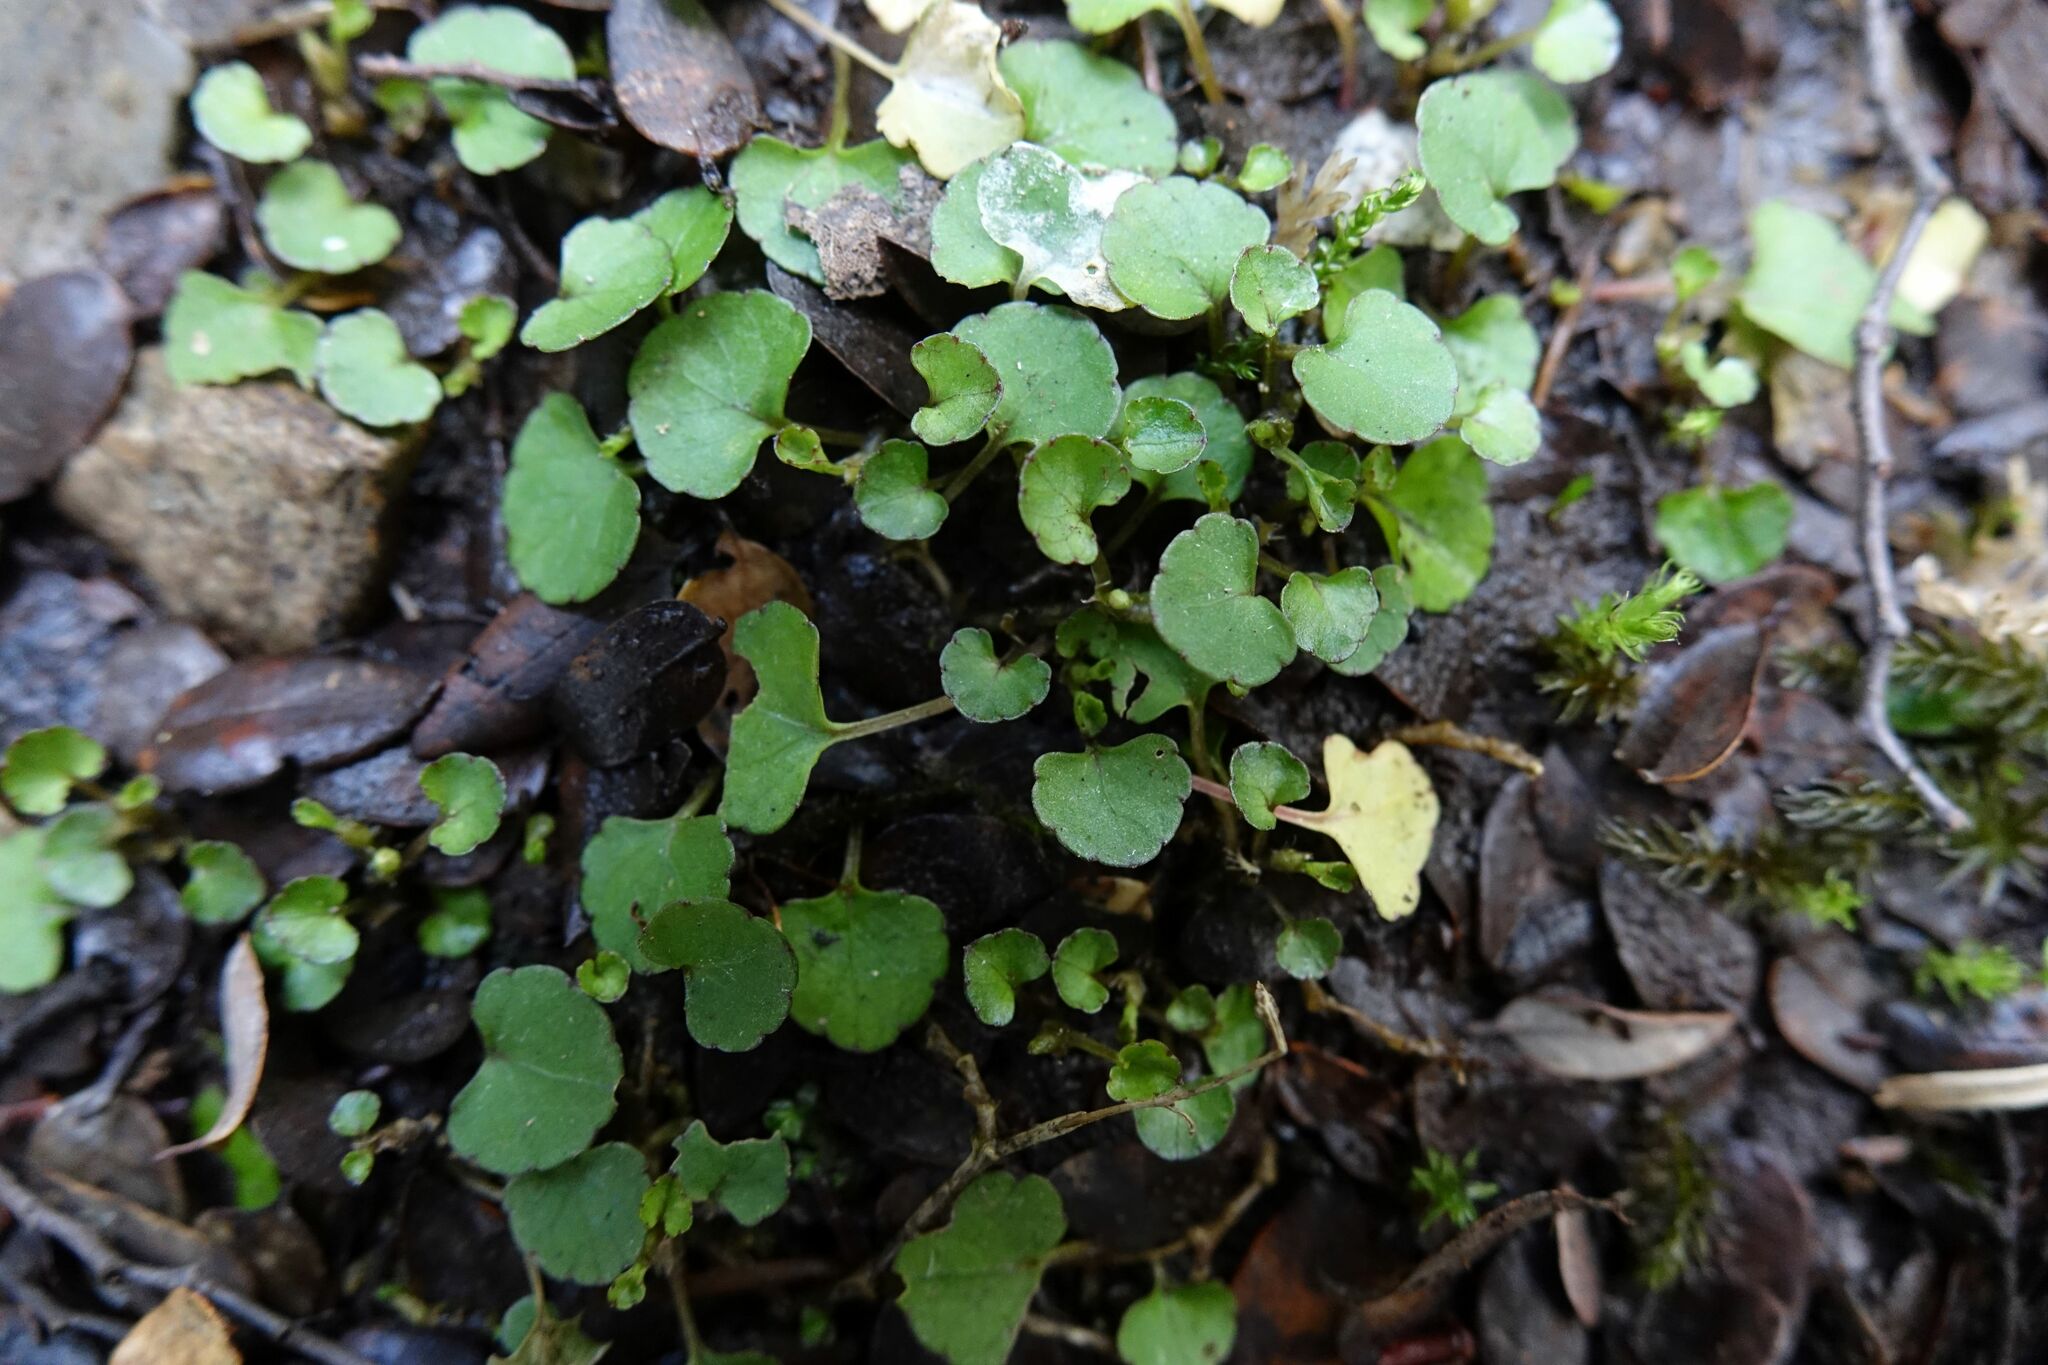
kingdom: Plantae
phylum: Tracheophyta
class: Magnoliopsida
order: Malpighiales
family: Violaceae
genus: Viola
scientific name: Viola filicaulis
